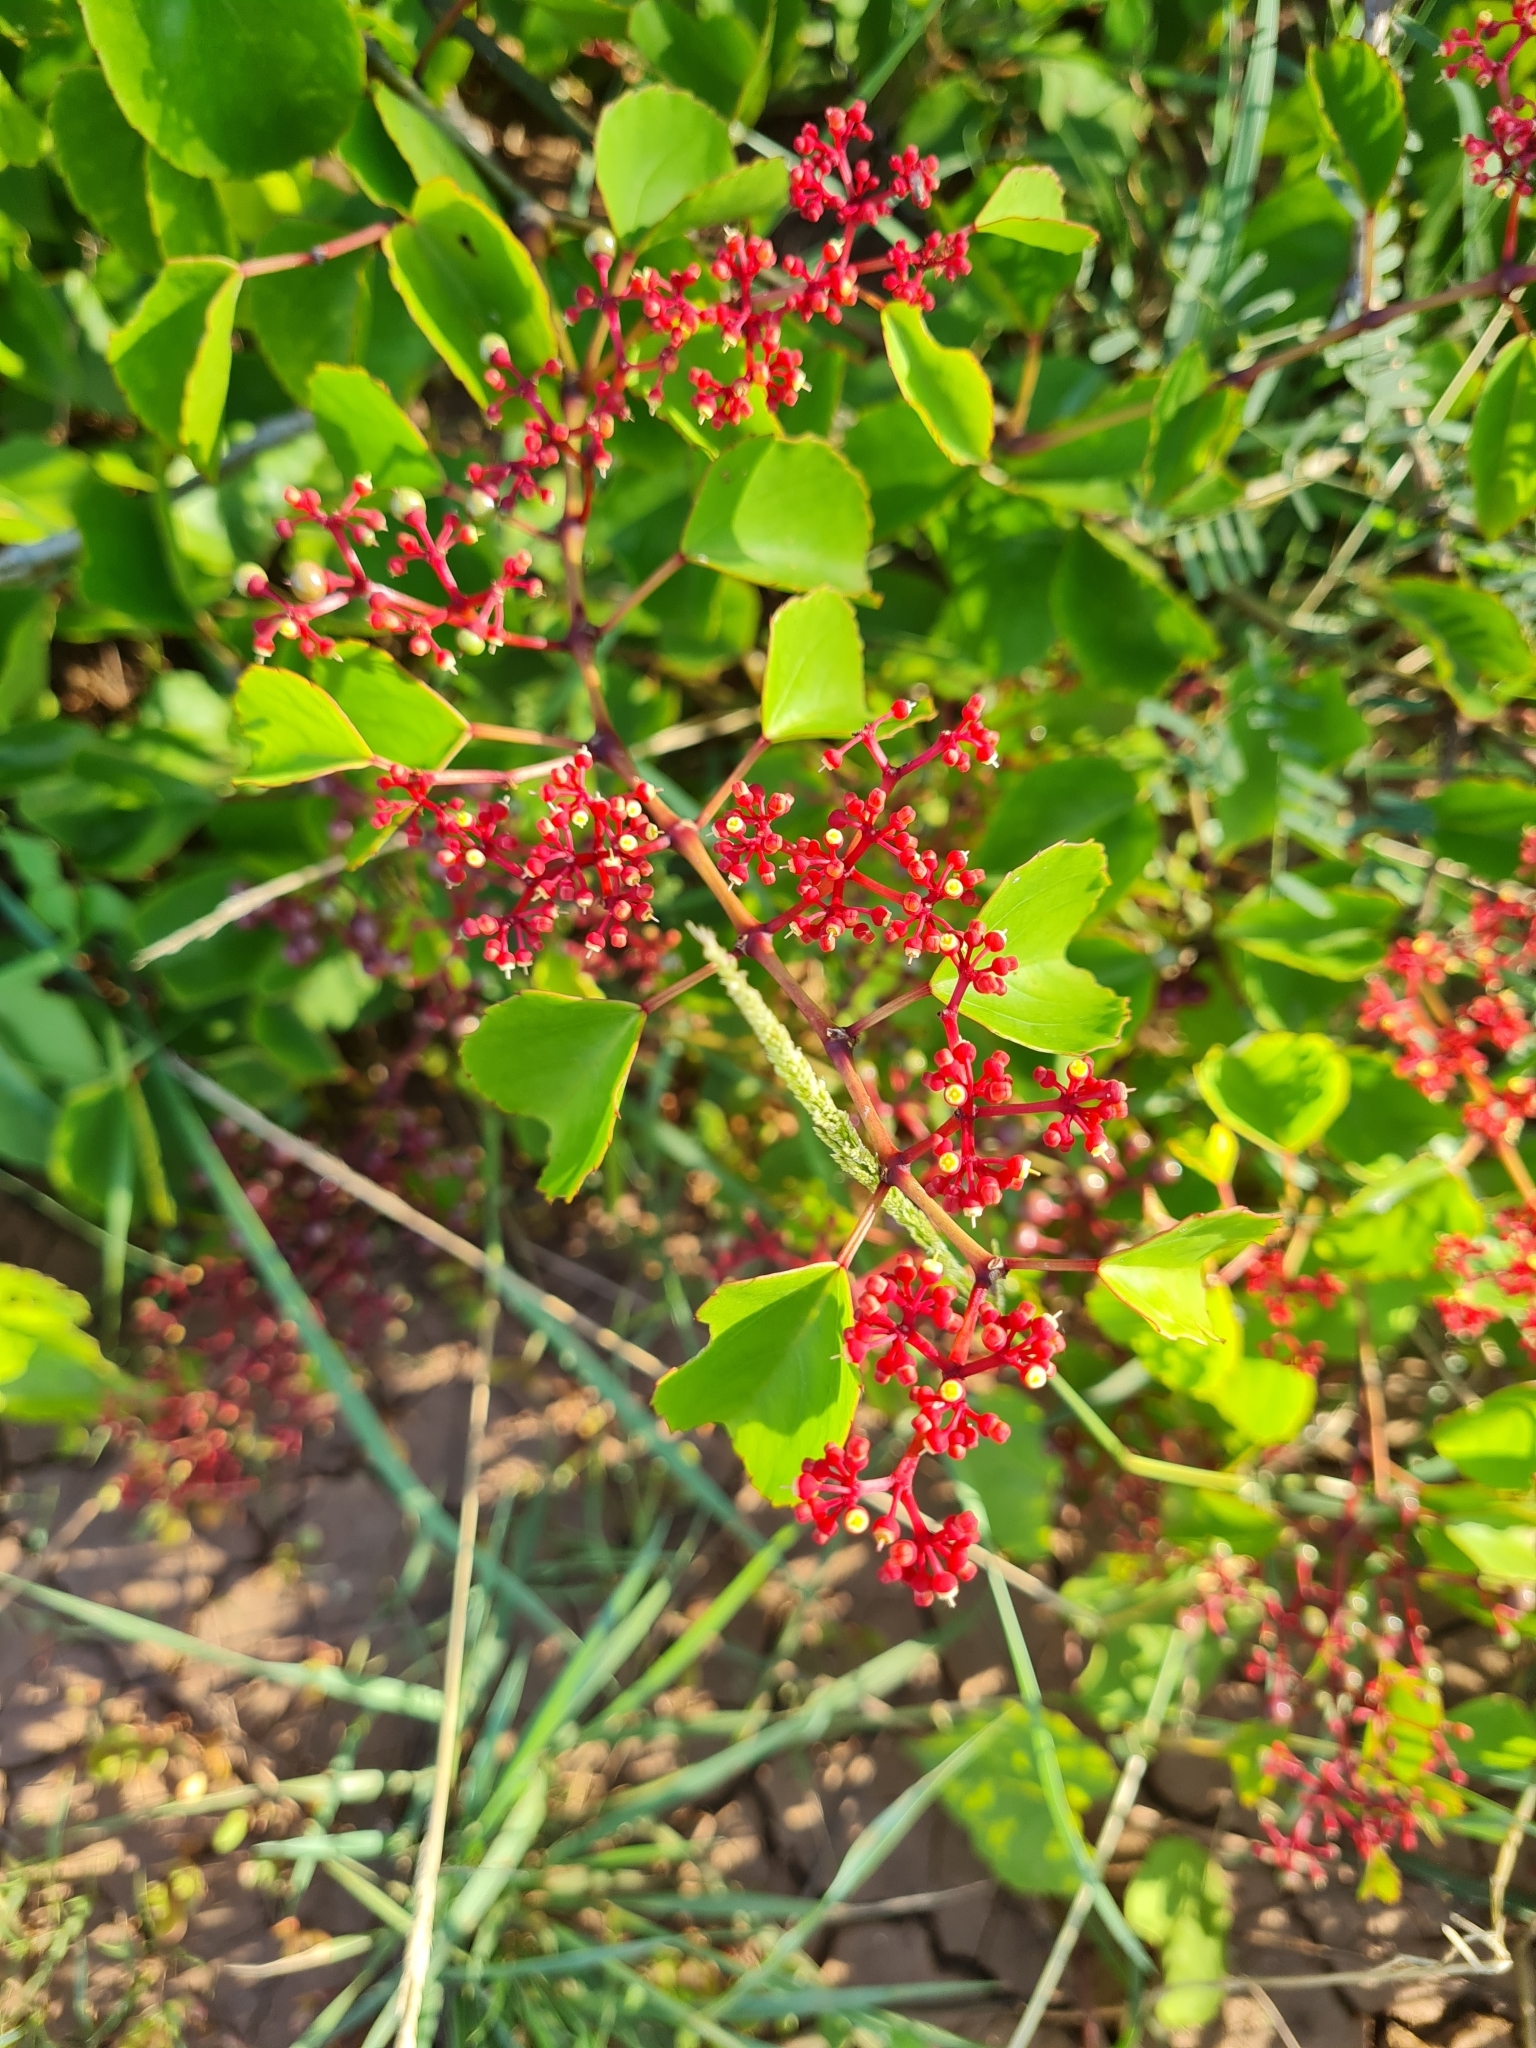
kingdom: Plantae
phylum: Tracheophyta
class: Magnoliopsida
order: Vitales
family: Vitaceae
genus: Cissus
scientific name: Cissus erosa
